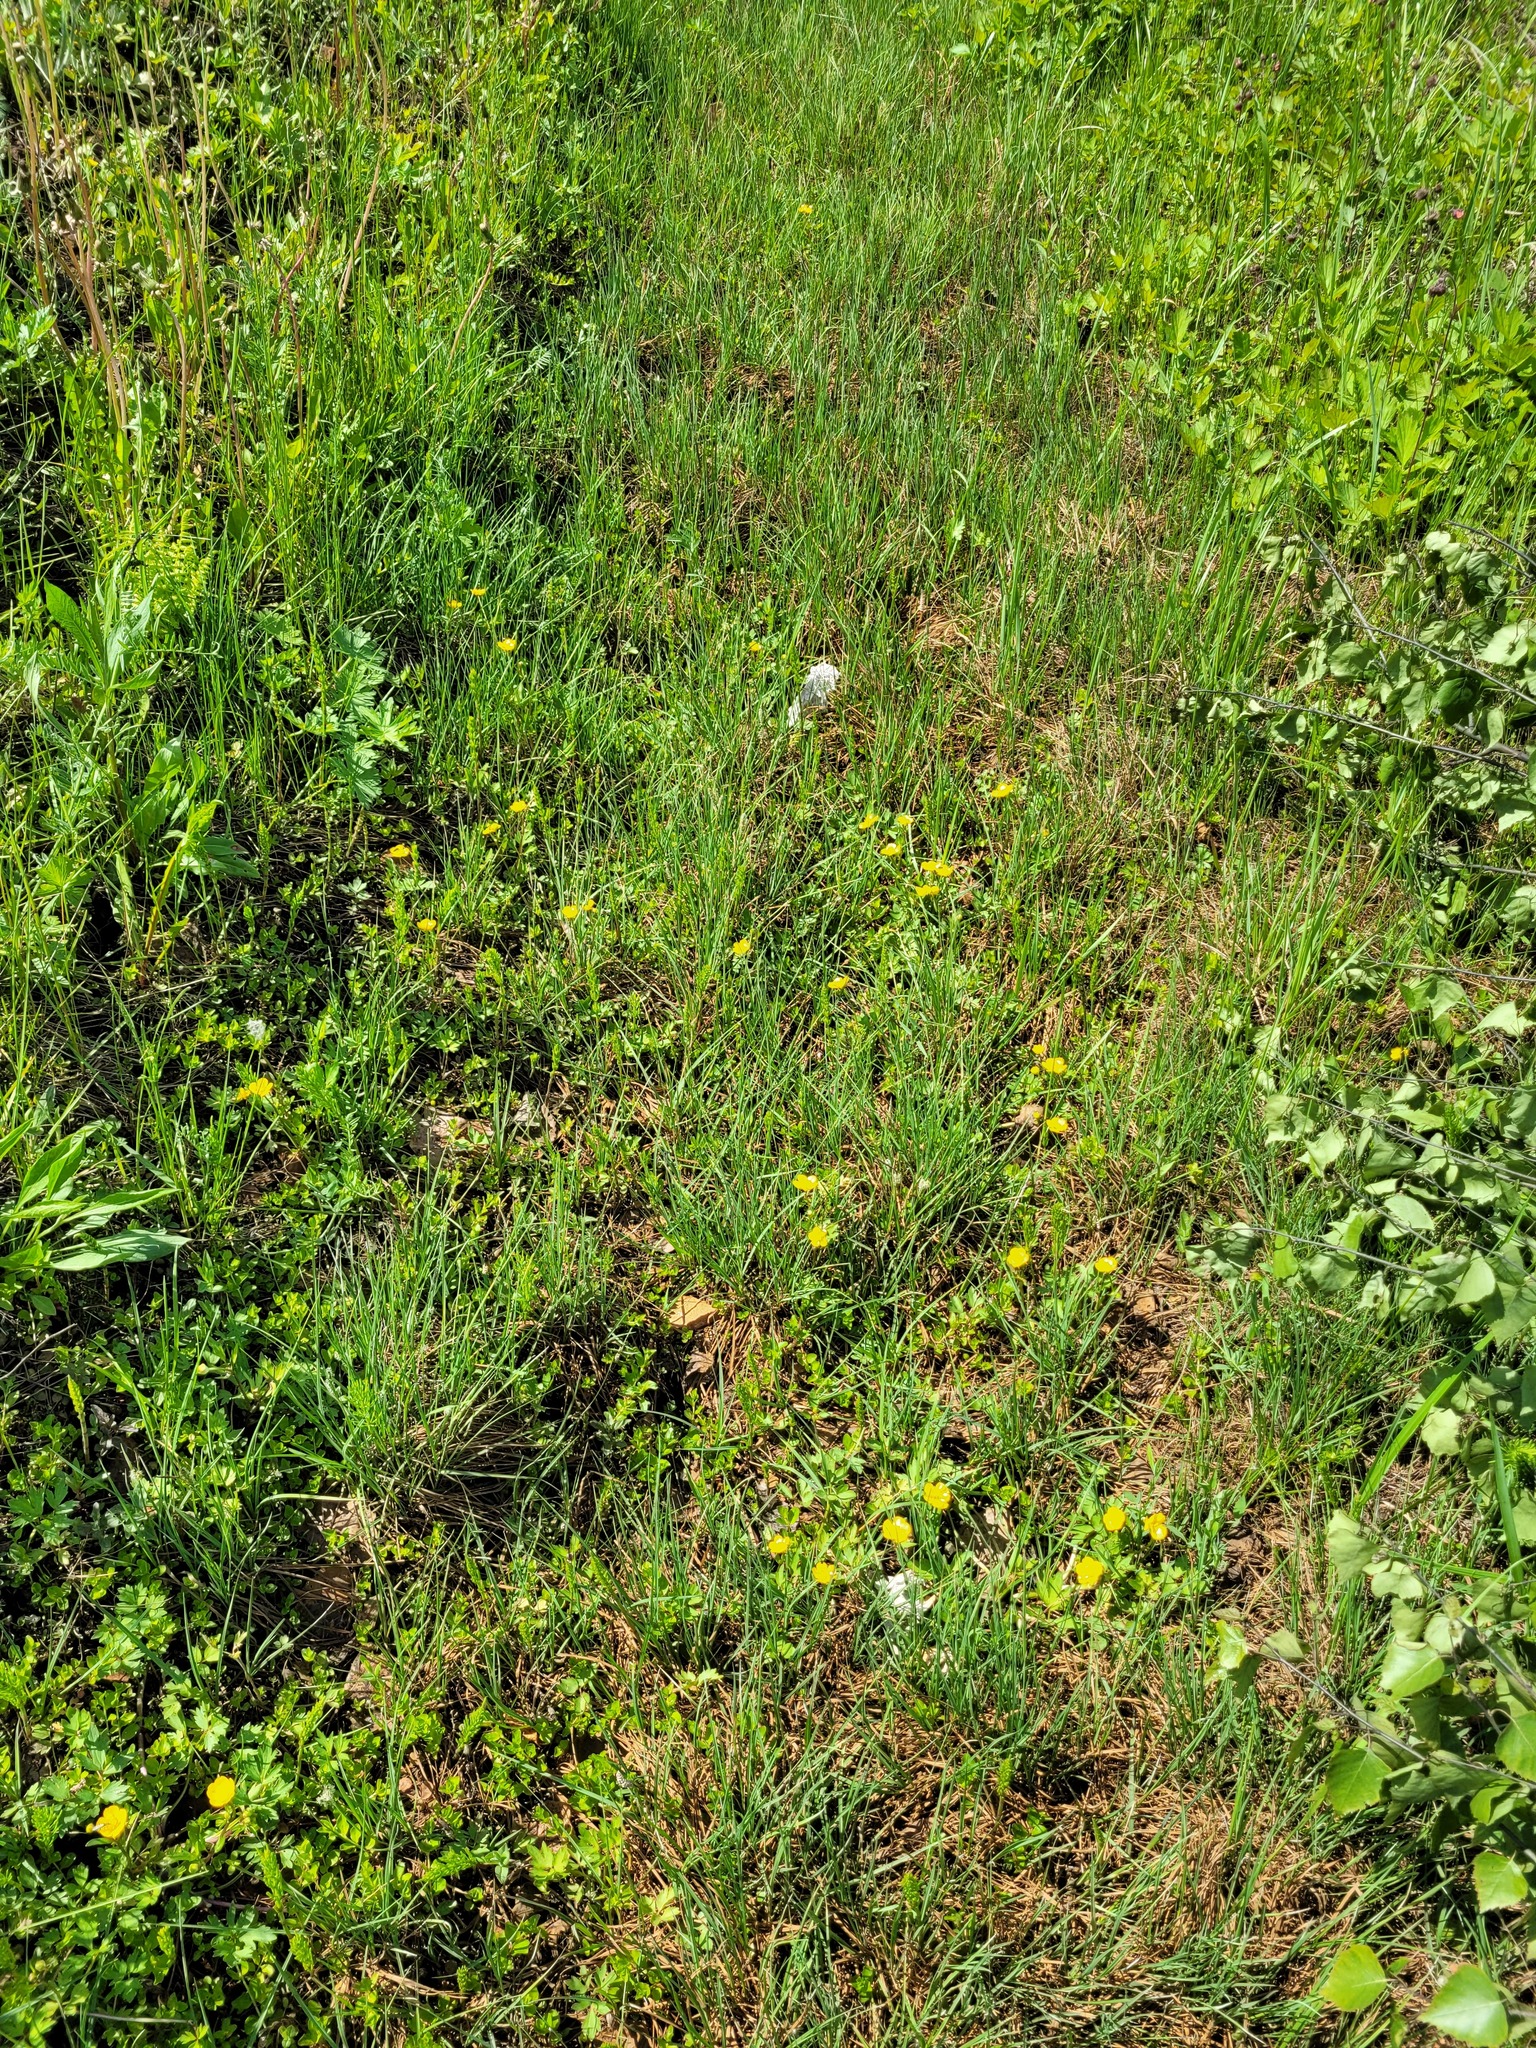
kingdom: Plantae
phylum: Tracheophyta
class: Magnoliopsida
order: Ranunculales
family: Ranunculaceae
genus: Ranunculus
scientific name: Ranunculus repens
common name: Creeping buttercup
